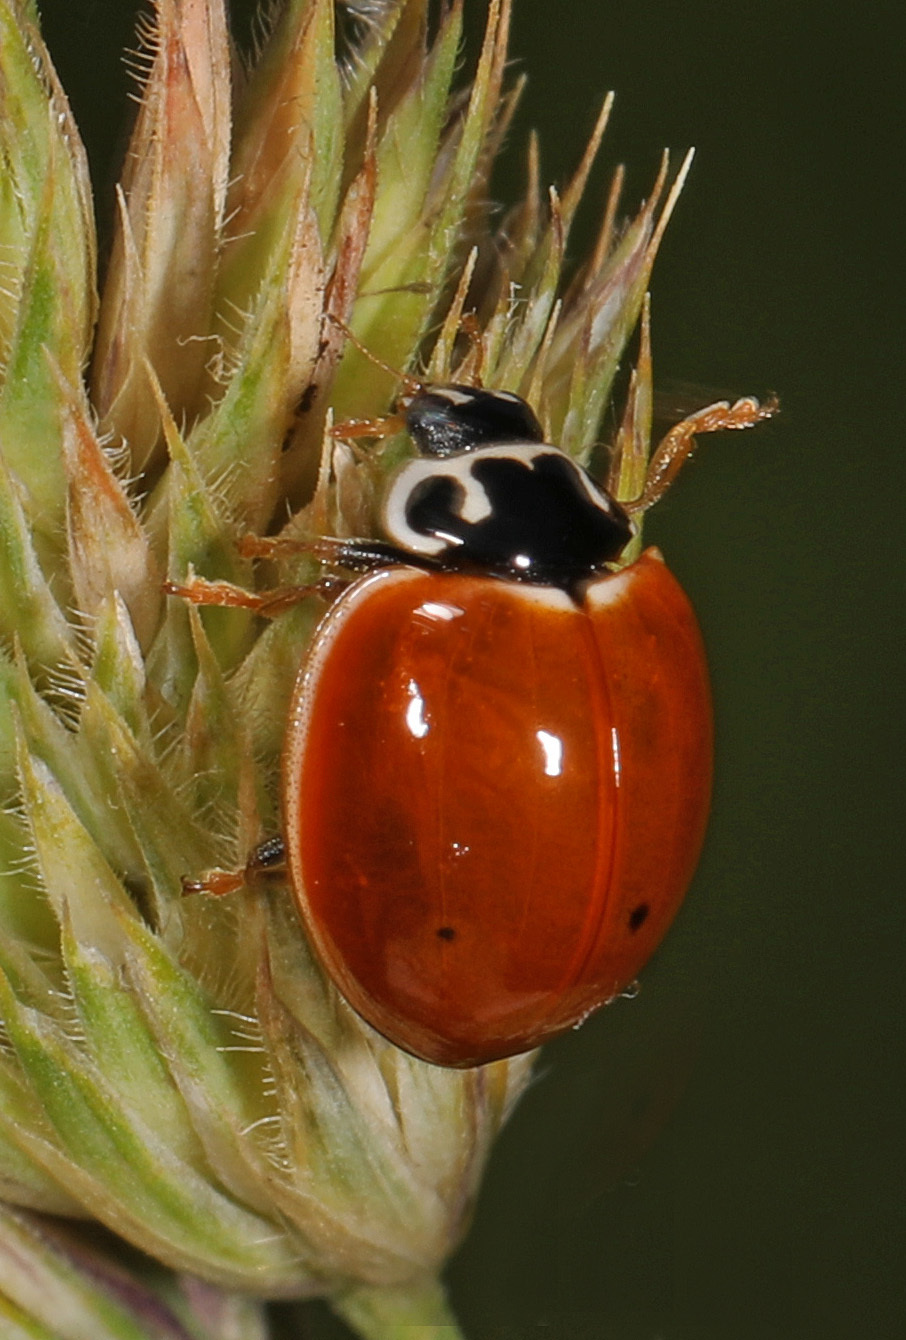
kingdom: Animalia
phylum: Arthropoda
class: Insecta
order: Coleoptera
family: Coccinellidae
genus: Cycloneda
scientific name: Cycloneda munda
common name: Polished lady beetle
